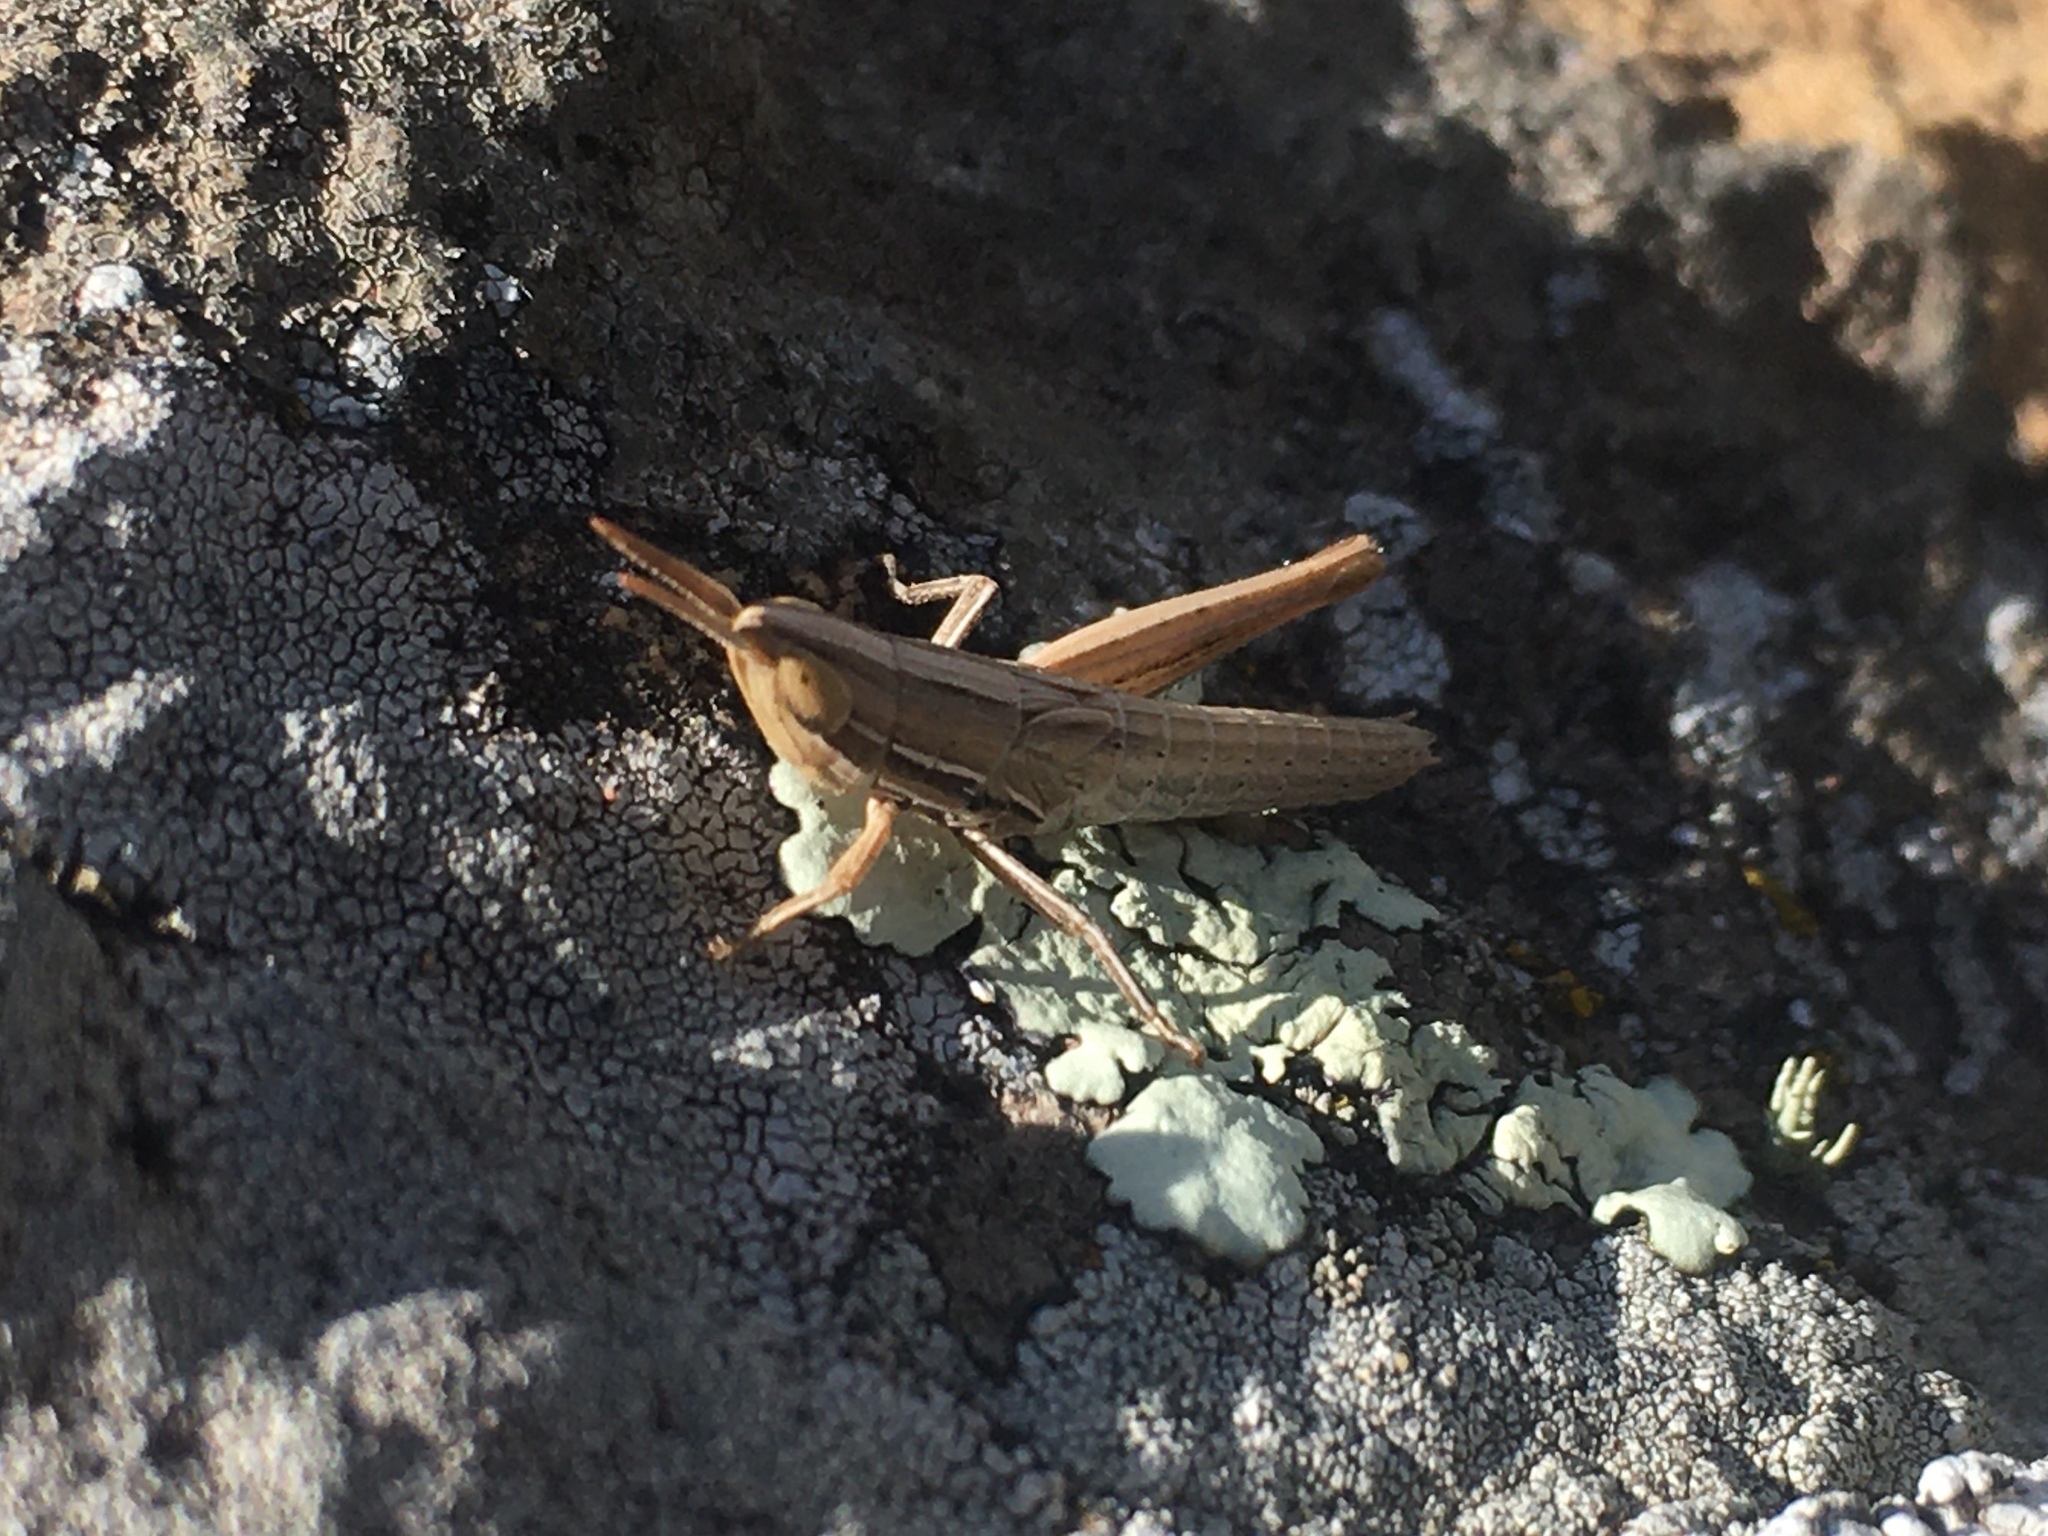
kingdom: Animalia
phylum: Arthropoda
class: Insecta
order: Orthoptera
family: Acrididae
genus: Sinipta
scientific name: Sinipta dalmani
